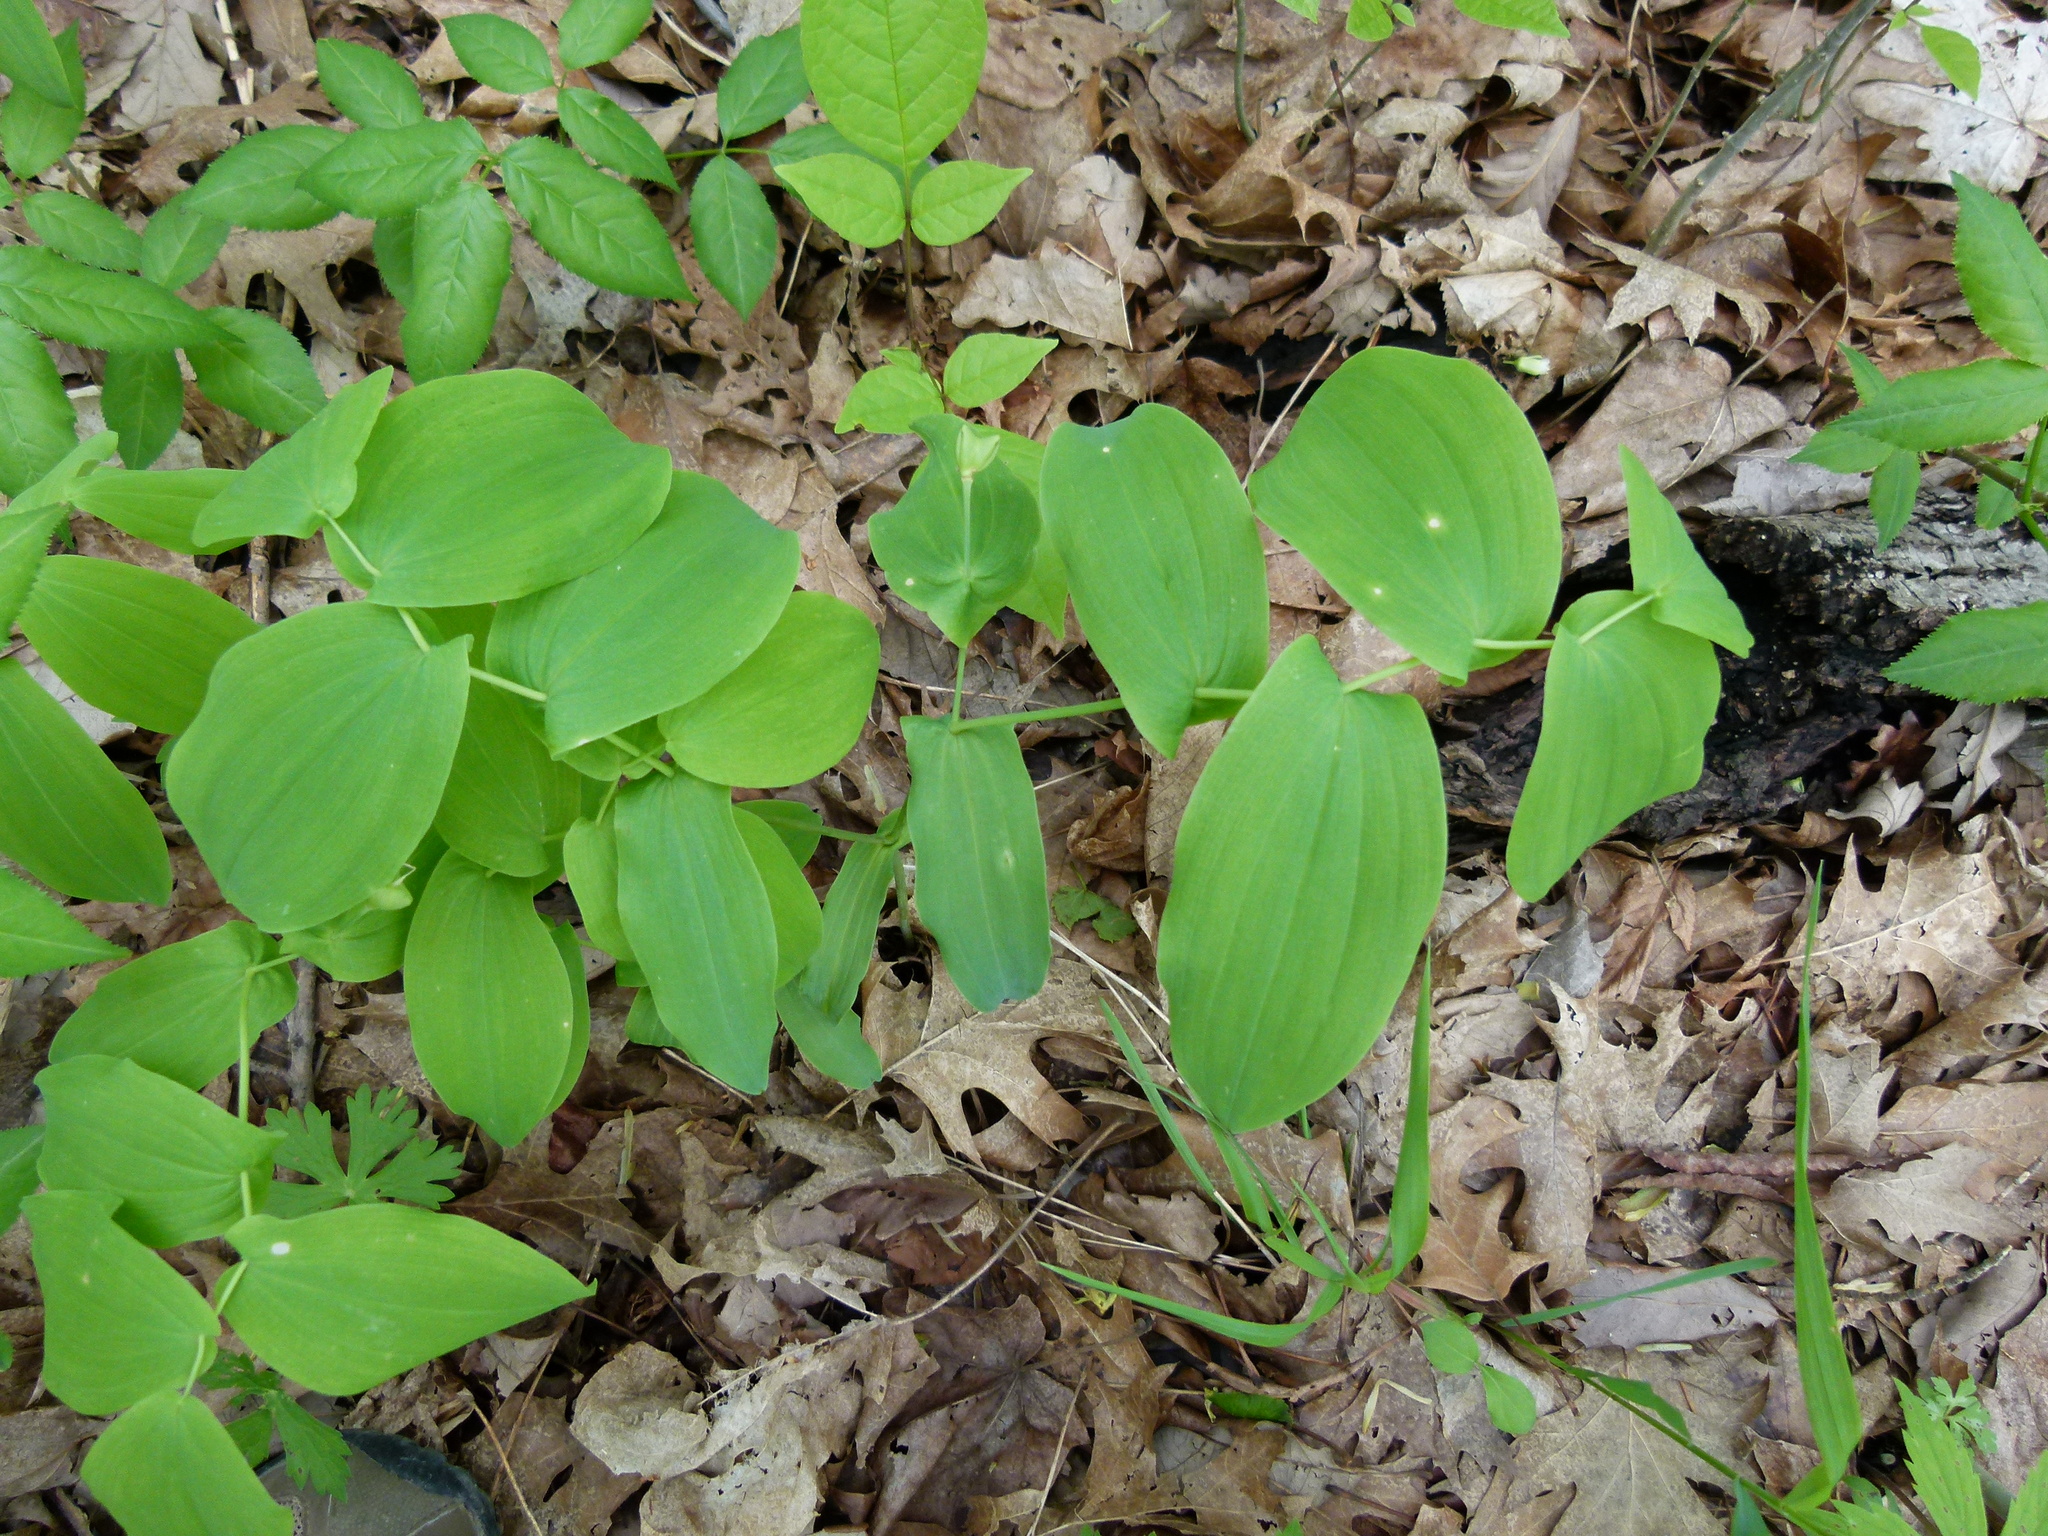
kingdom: Plantae
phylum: Tracheophyta
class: Liliopsida
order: Liliales
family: Colchicaceae
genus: Uvularia
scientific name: Uvularia grandiflora
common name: Bellwort
